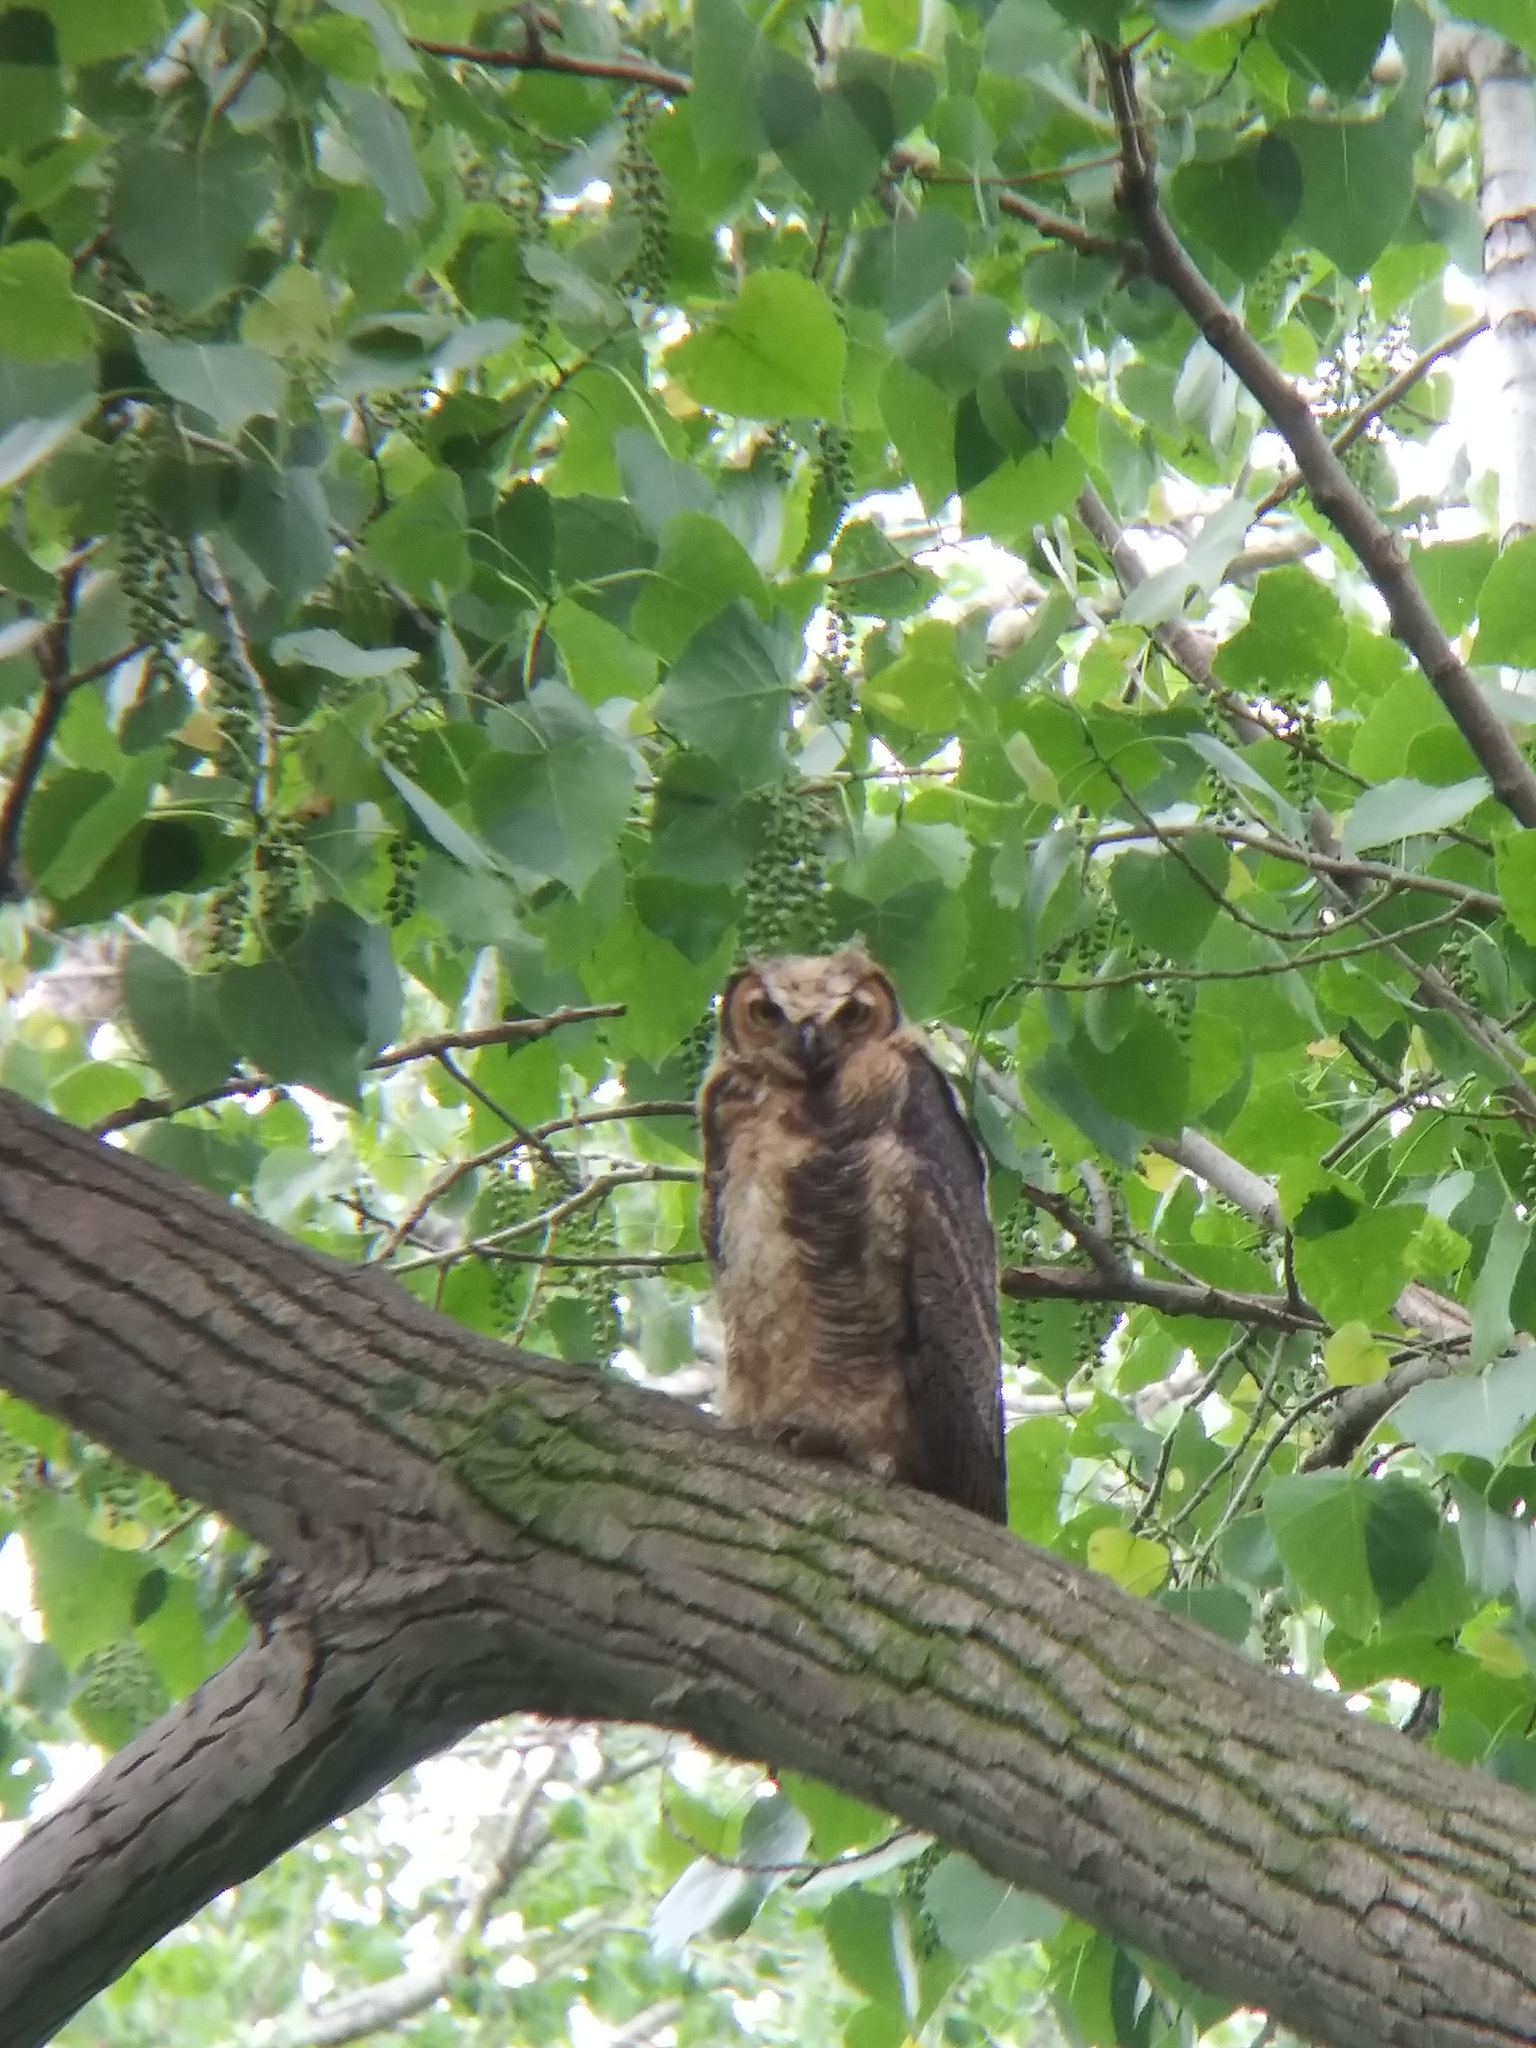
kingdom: Animalia
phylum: Chordata
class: Aves
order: Strigiformes
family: Strigidae
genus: Bubo
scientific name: Bubo virginianus
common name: Great horned owl
